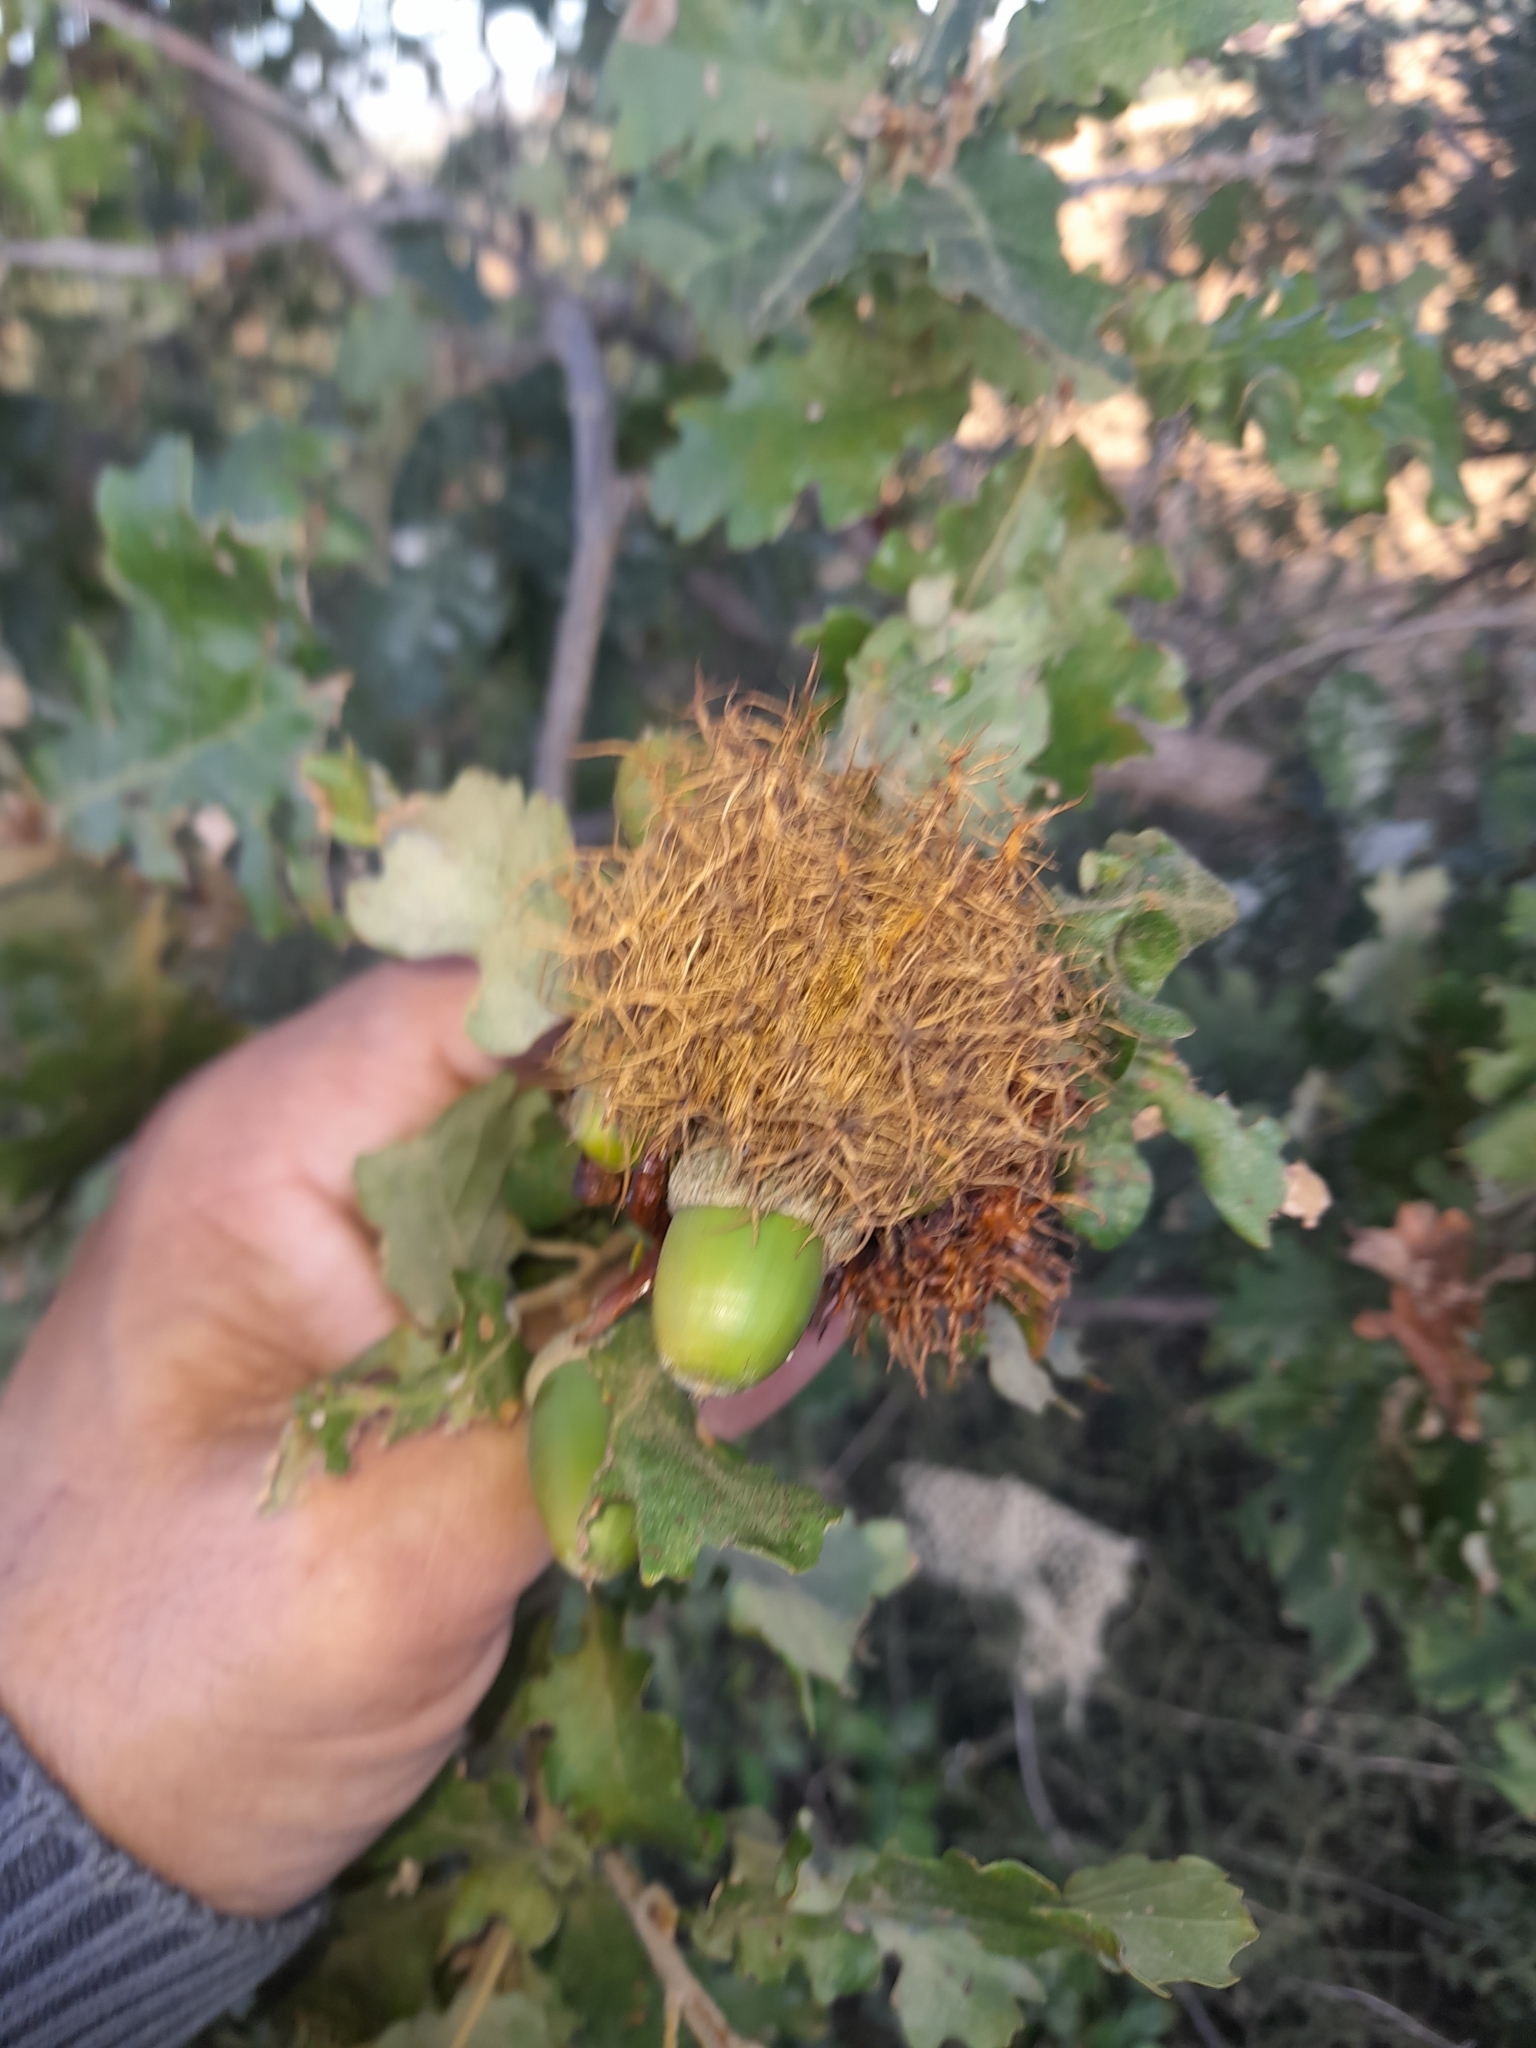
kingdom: Animalia
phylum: Arthropoda
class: Insecta
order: Hymenoptera
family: Cynipidae
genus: Andricus
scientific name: Andricus caputmedusae
